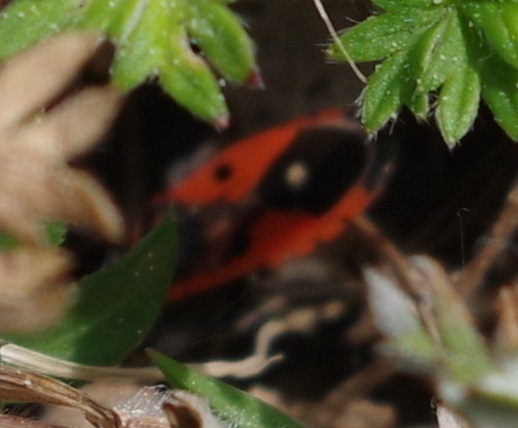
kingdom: Animalia
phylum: Arthropoda
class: Insecta
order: Hemiptera
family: Lygaeidae
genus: Melanocoryphus
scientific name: Melanocoryphus albomaculatus
